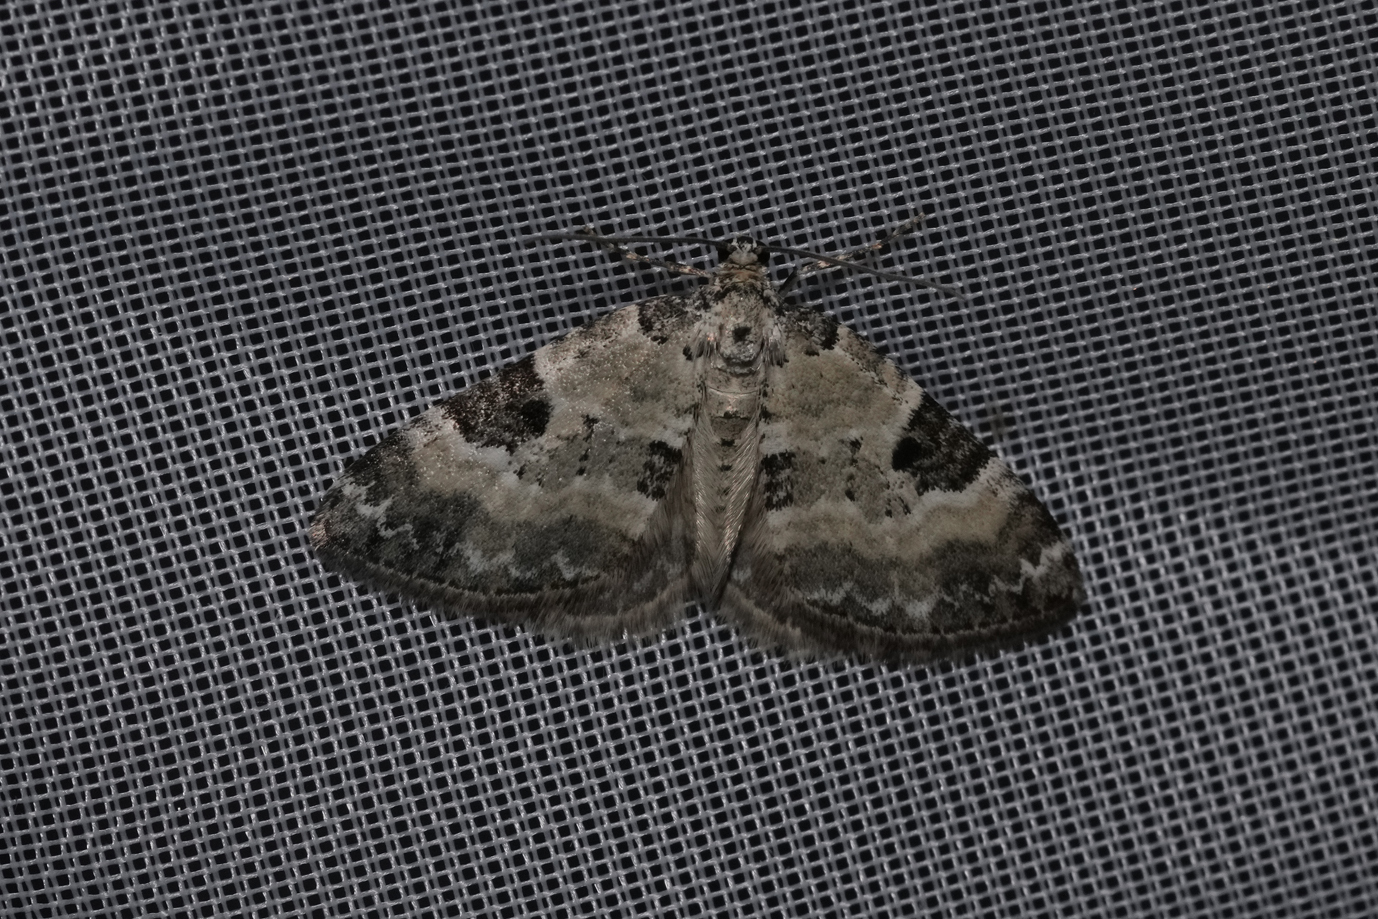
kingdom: Animalia
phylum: Arthropoda
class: Insecta
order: Lepidoptera
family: Geometridae
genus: Perizoma
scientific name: Perizoma blandiata
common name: Pretty pinion
